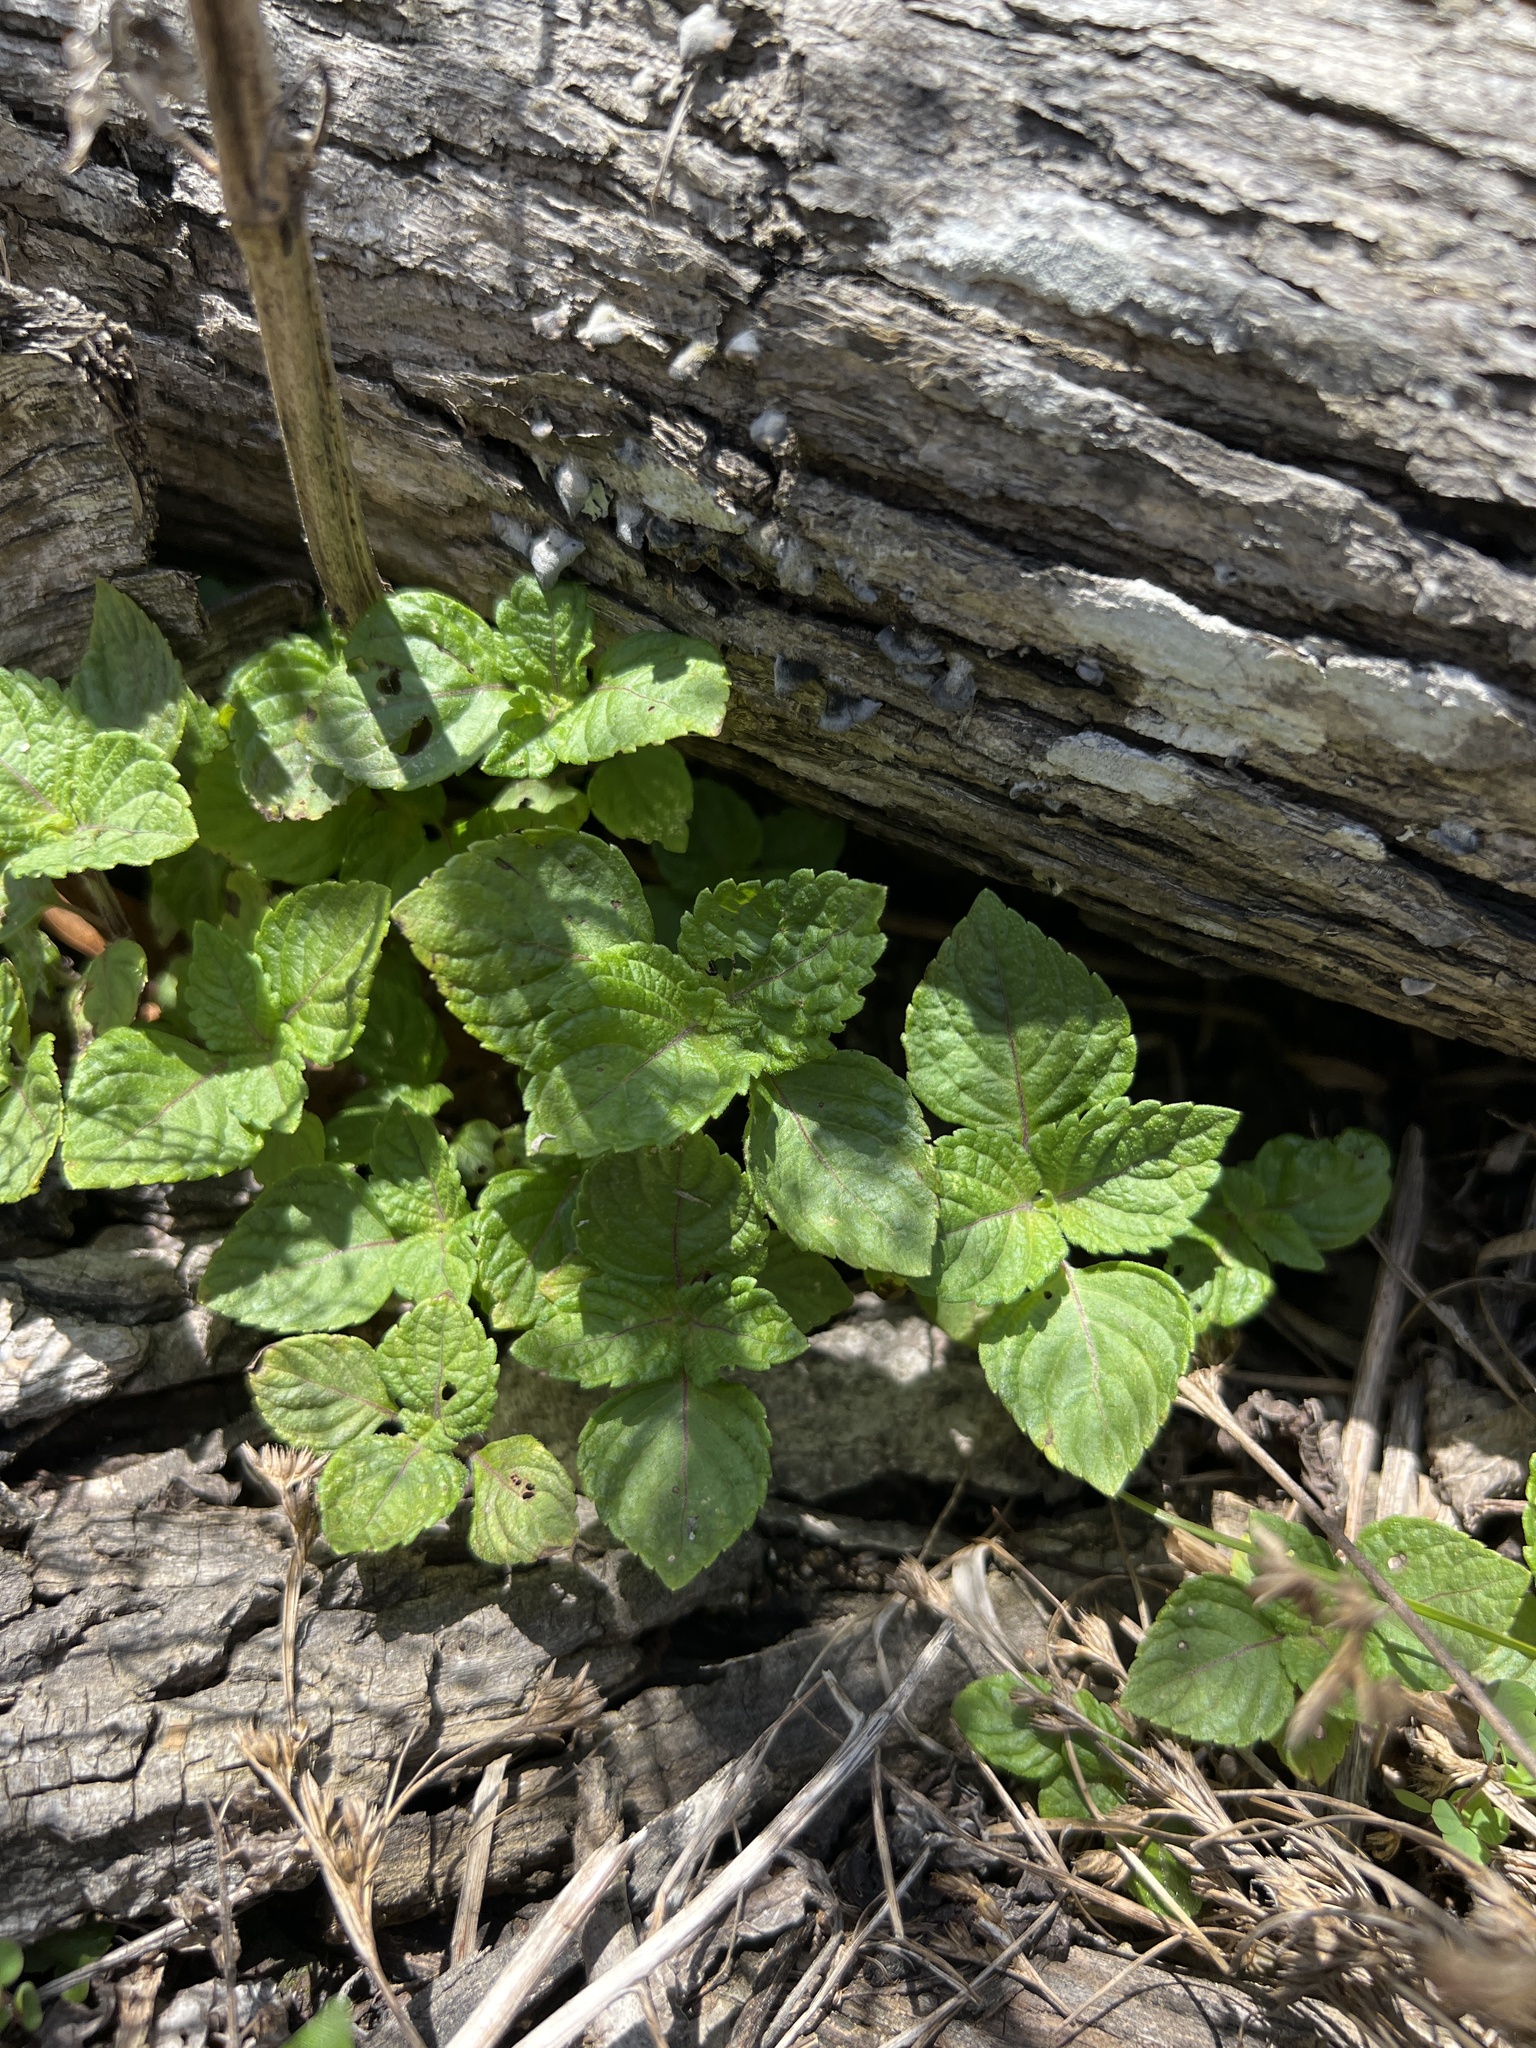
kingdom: Plantae
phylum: Tracheophyta
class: Magnoliopsida
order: Lamiales
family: Lamiaceae
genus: Perilla
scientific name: Perilla frutescens
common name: Perilla
